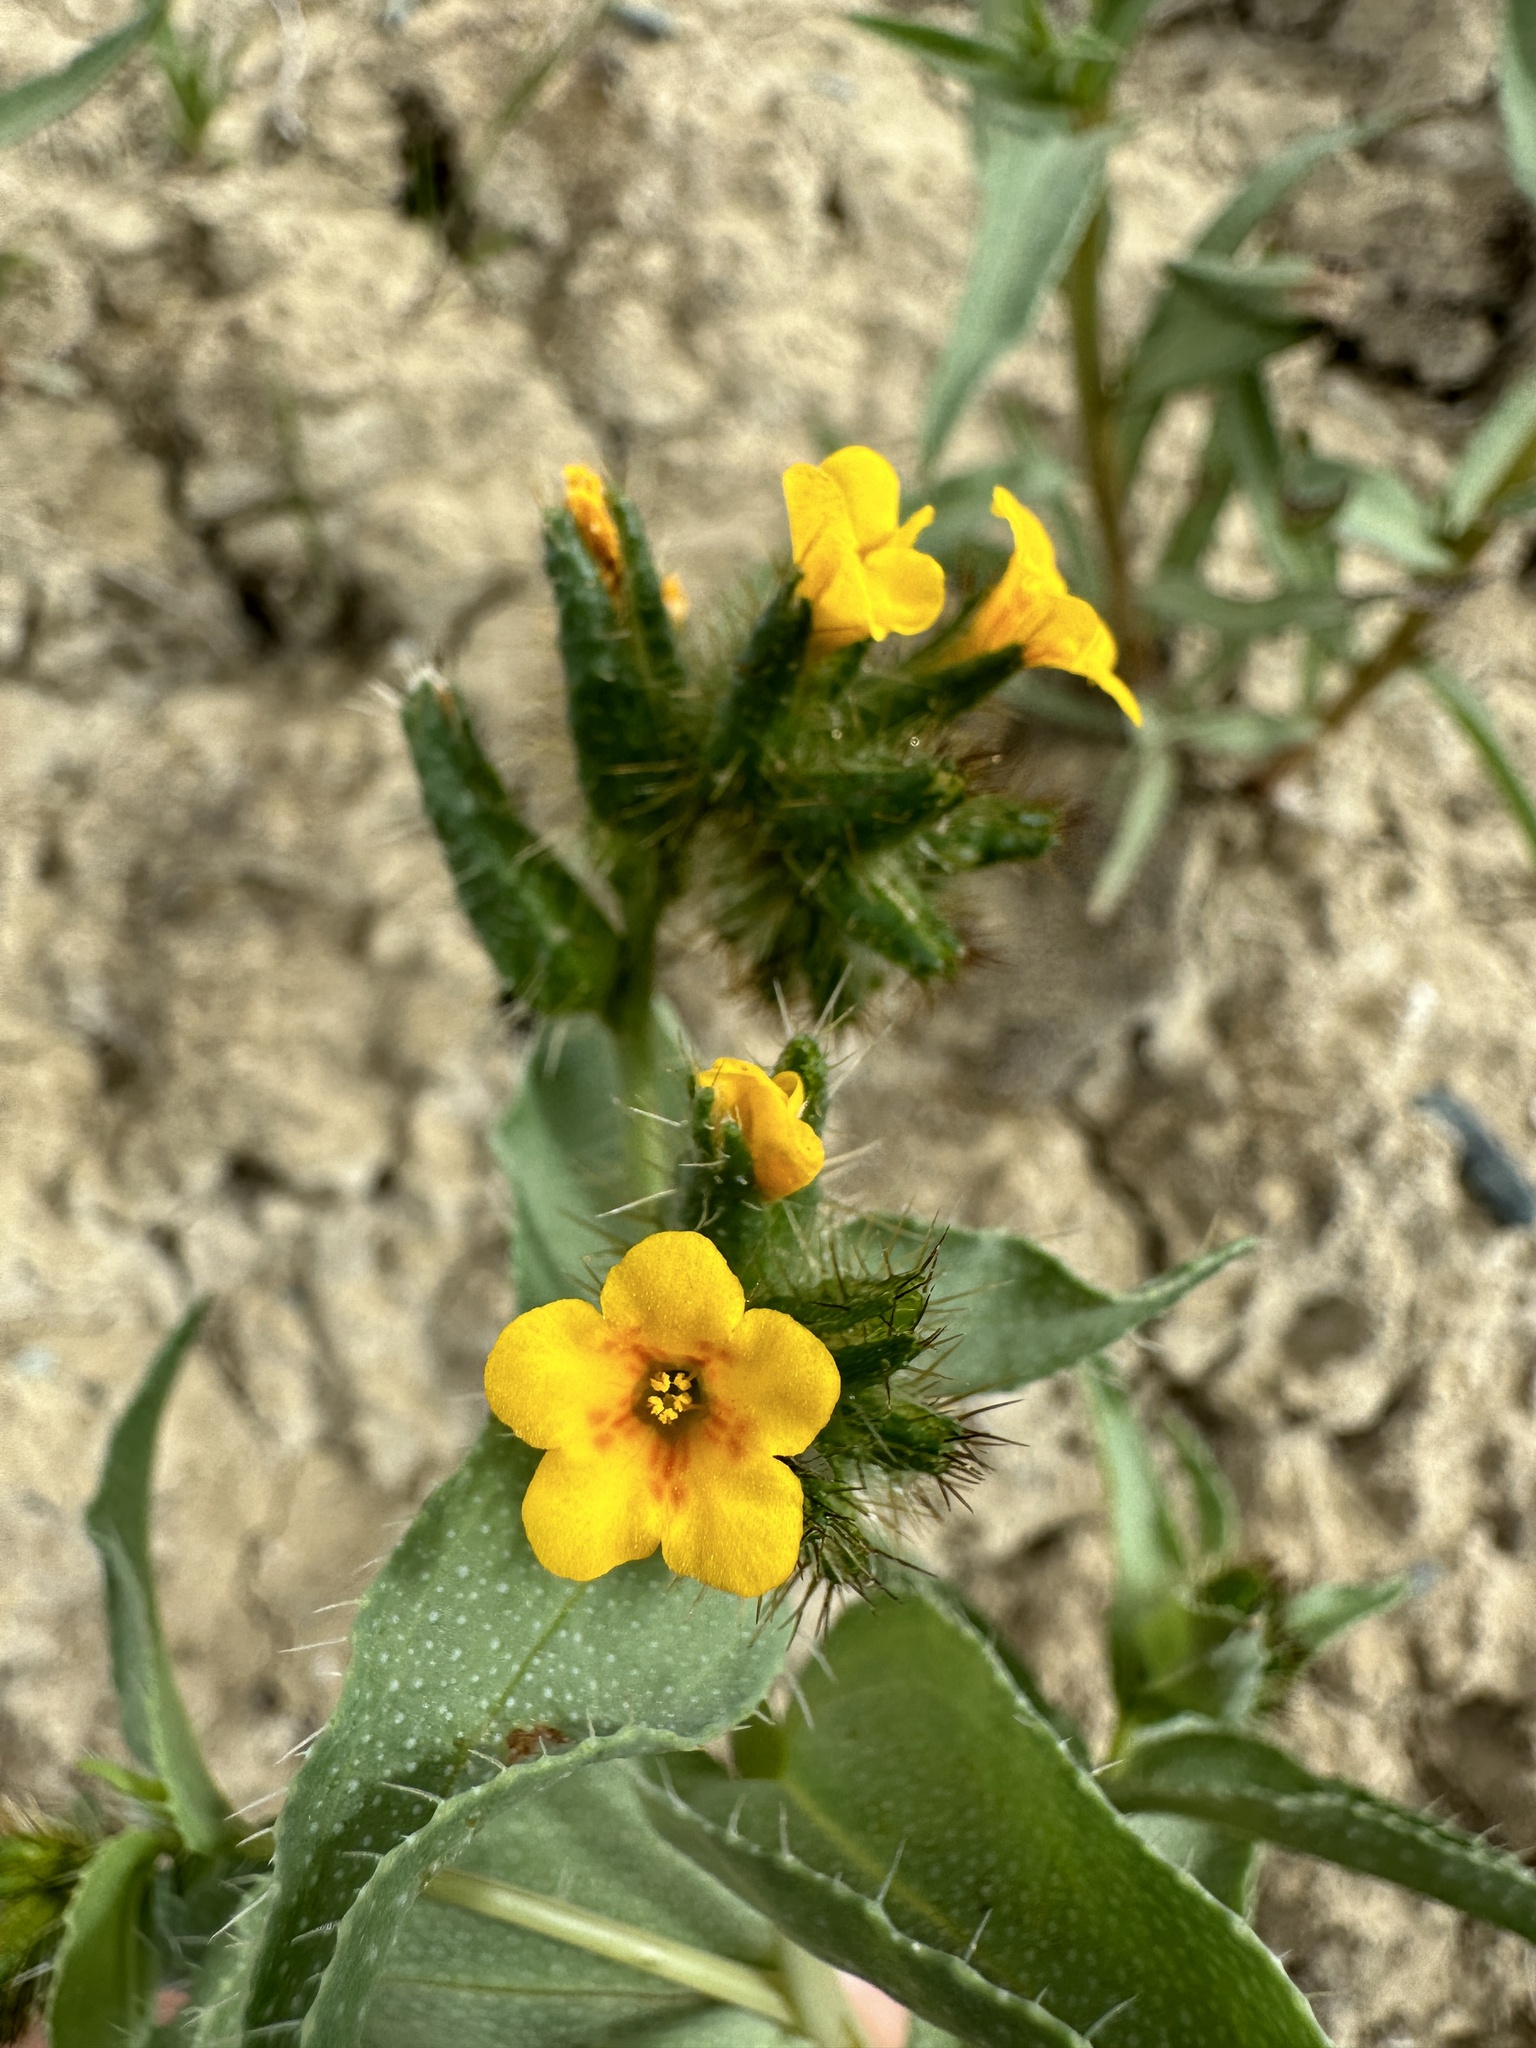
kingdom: Plantae
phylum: Tracheophyta
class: Magnoliopsida
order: Boraginales
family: Boraginaceae
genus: Amsinckia
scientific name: Amsinckia vernicosa
